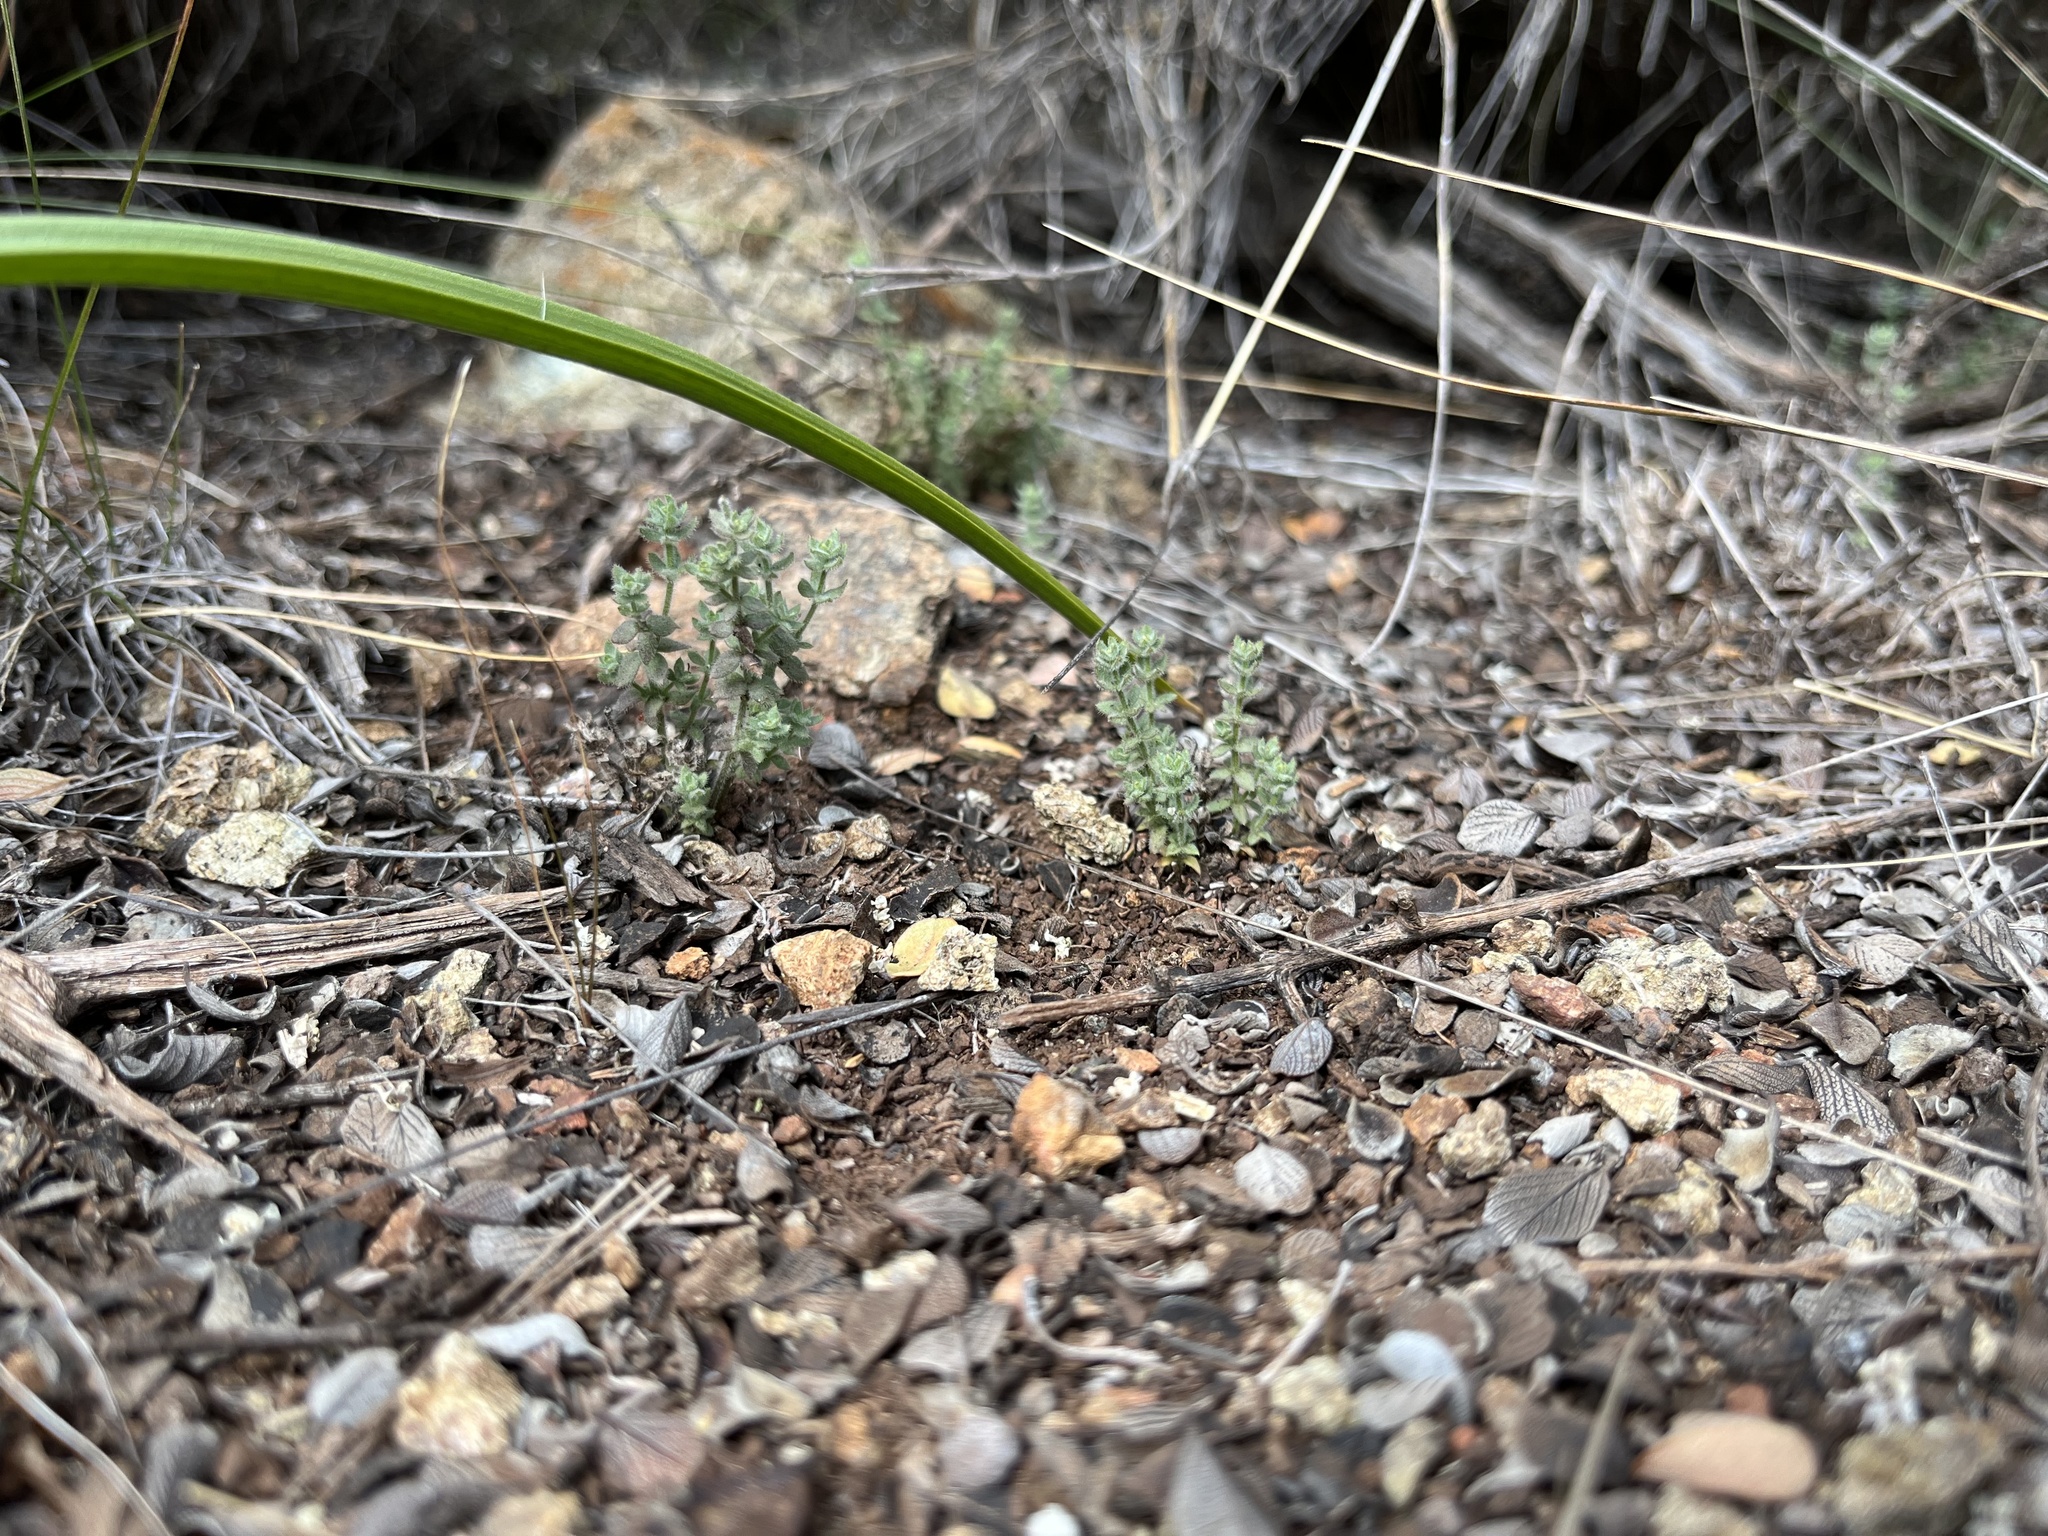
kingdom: Plantae
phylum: Tracheophyta
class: Magnoliopsida
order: Gentianales
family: Rubiaceae
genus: Galium
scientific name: Galium californicum
